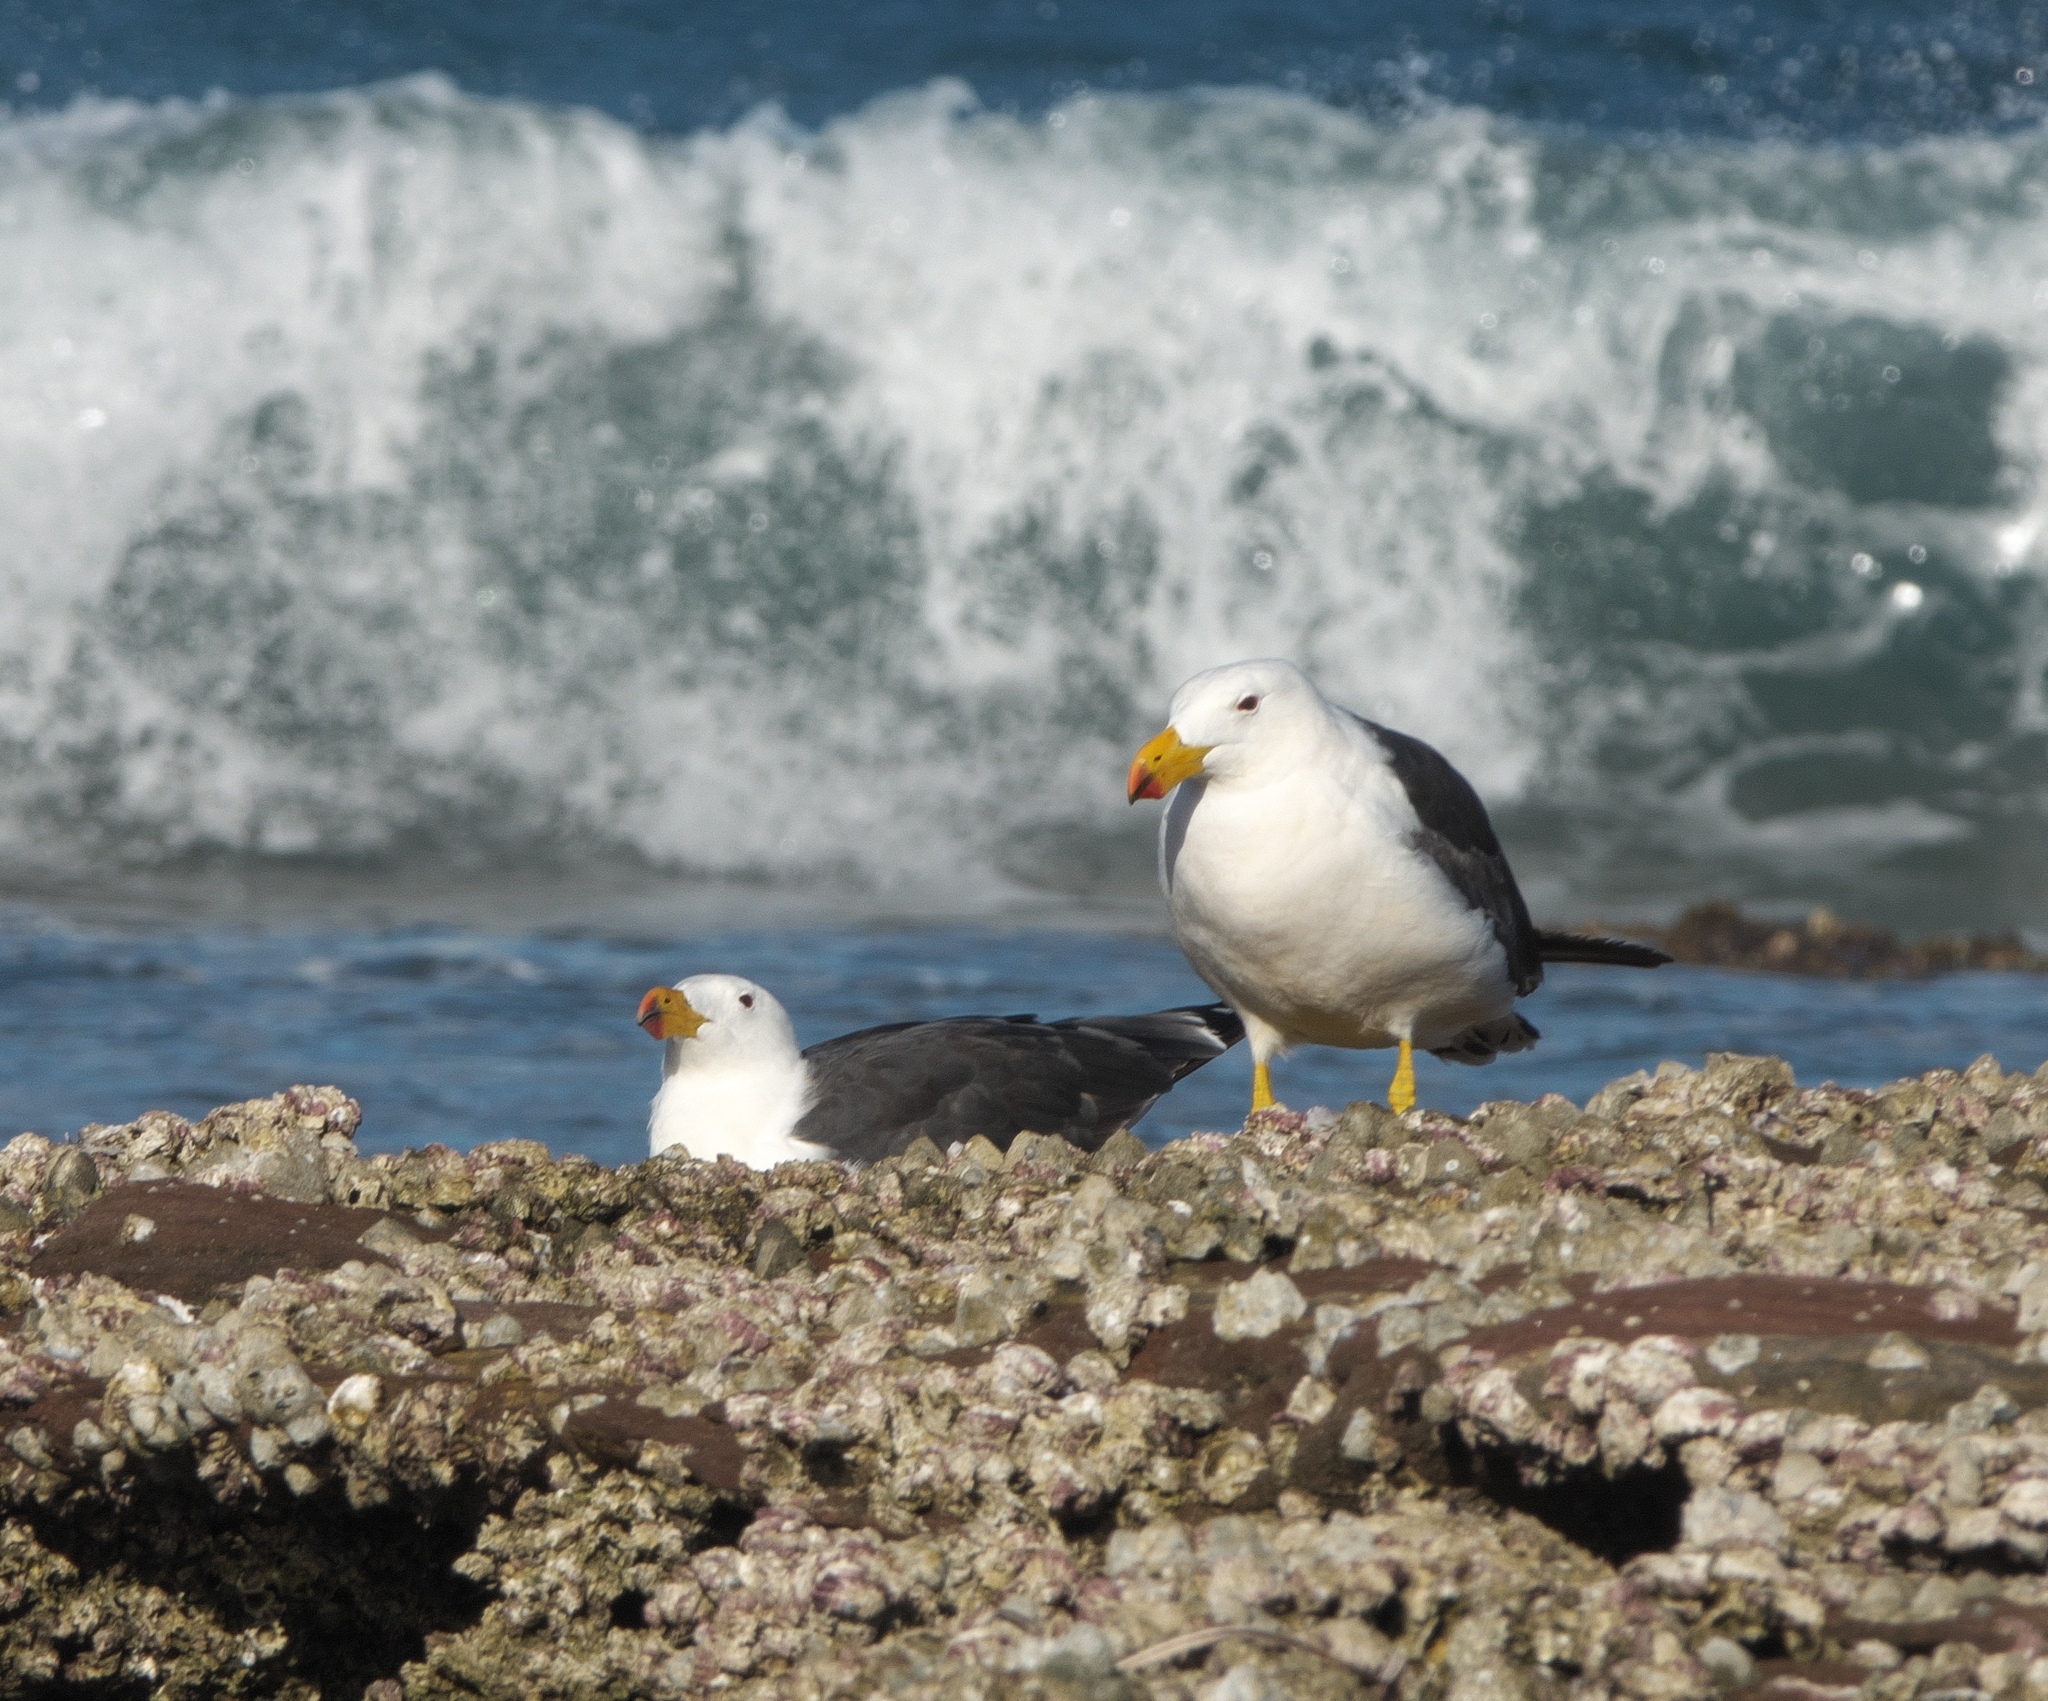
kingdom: Animalia
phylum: Chordata
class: Aves
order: Charadriiformes
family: Laridae
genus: Larus
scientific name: Larus pacificus
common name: Pacific gull
